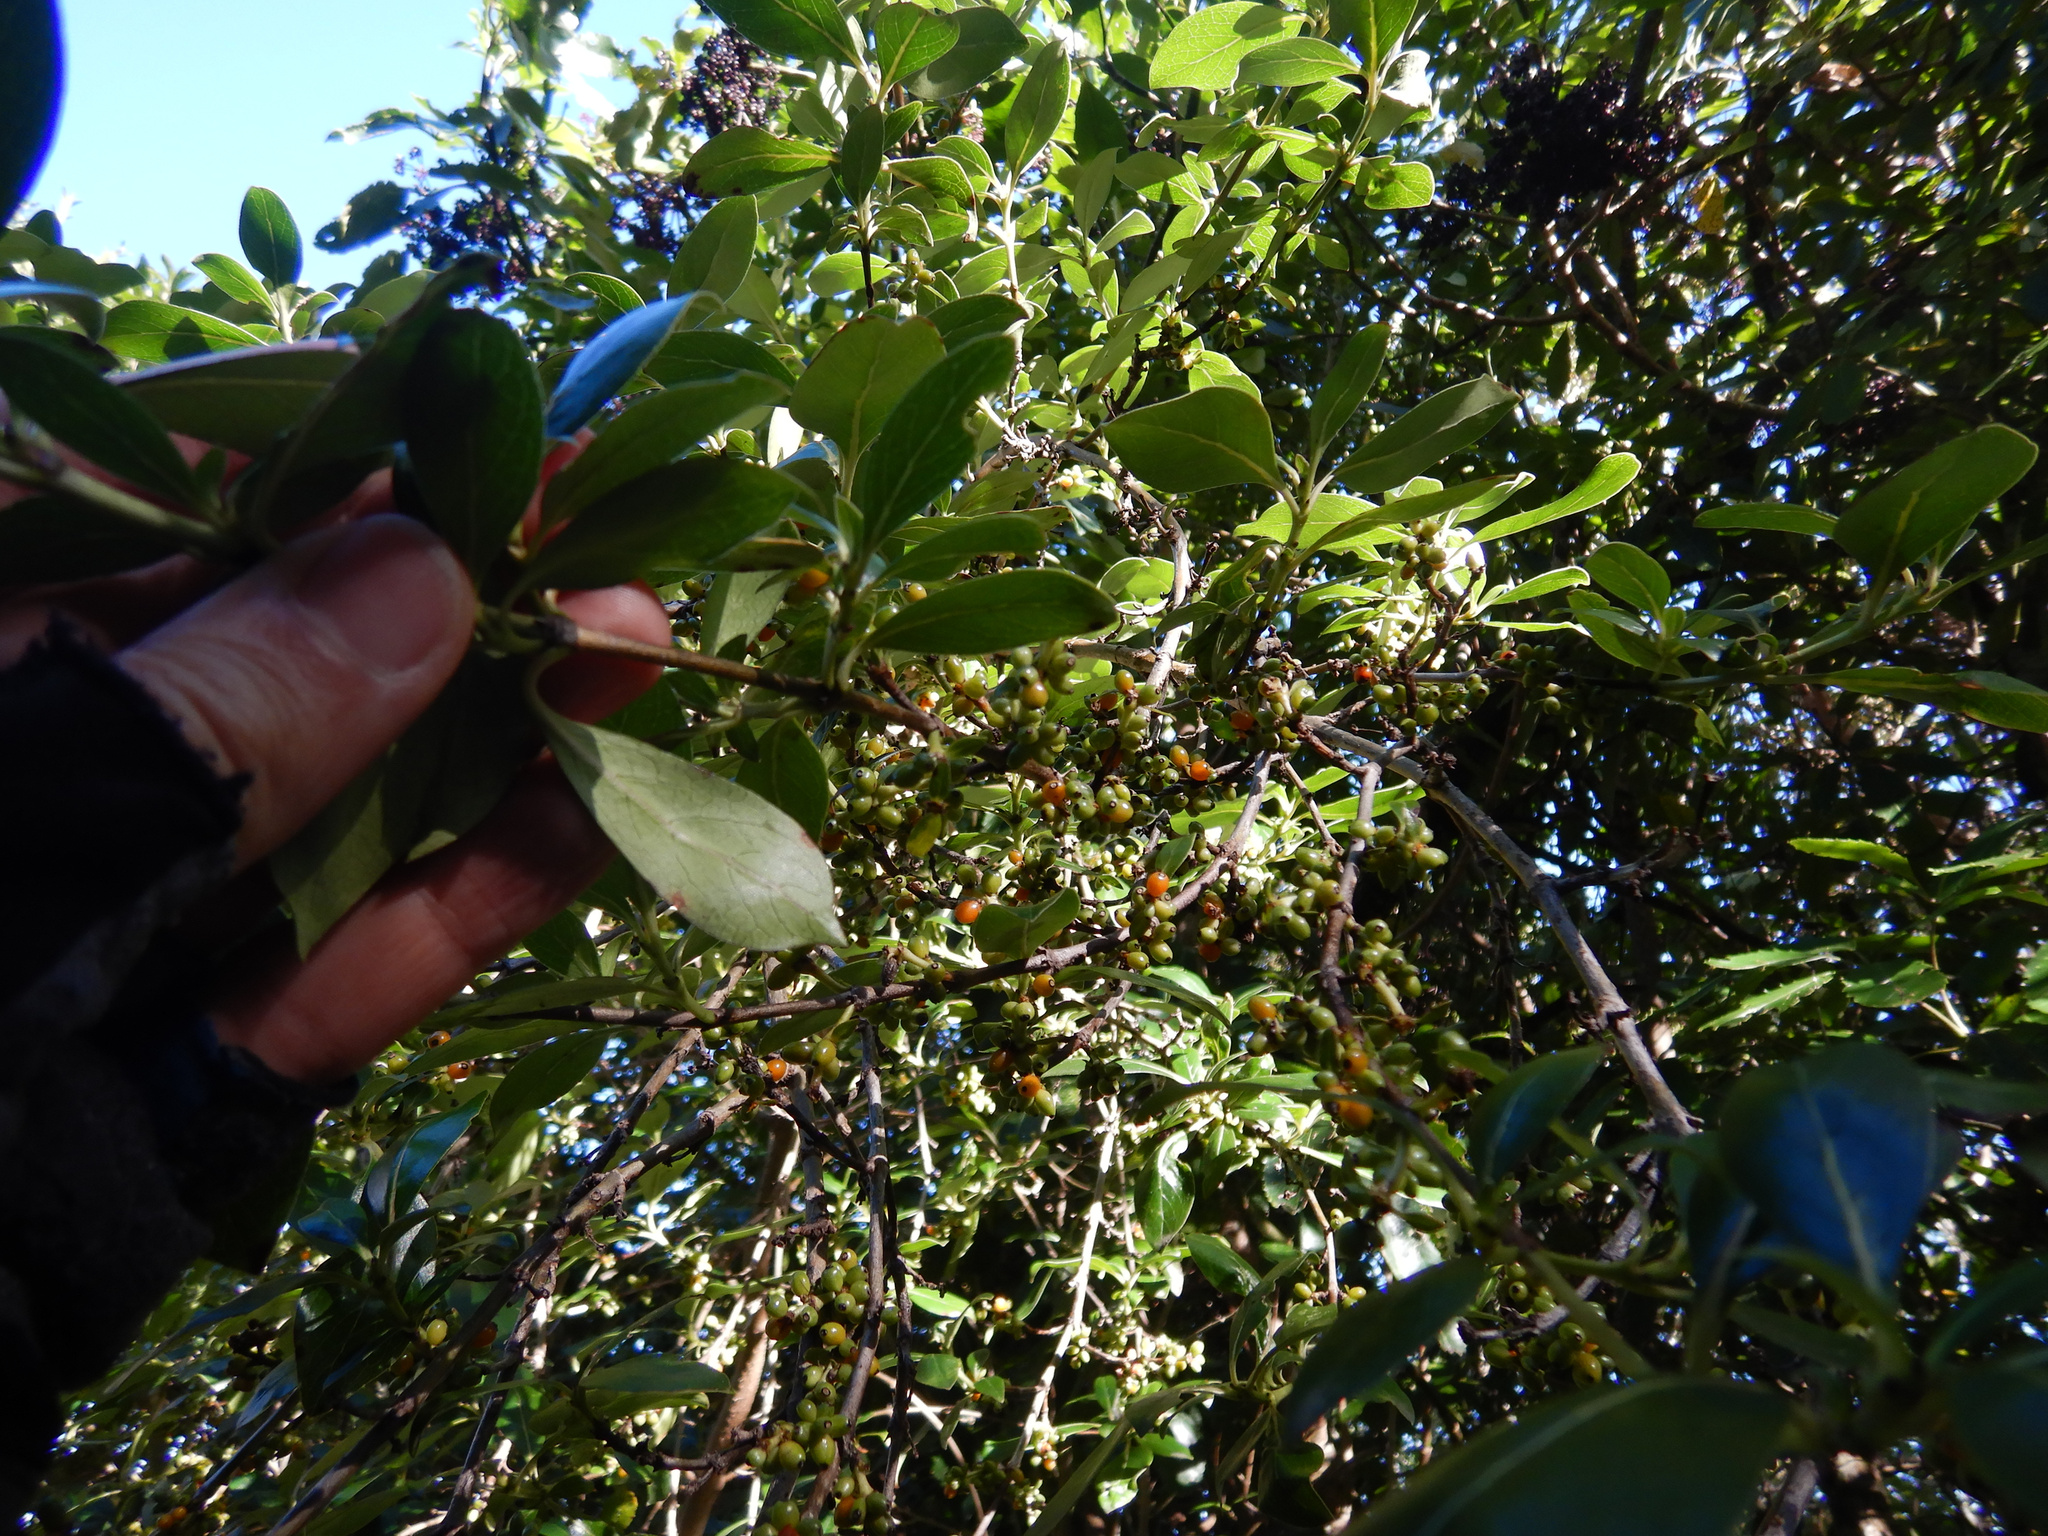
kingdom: Plantae
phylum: Tracheophyta
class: Magnoliopsida
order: Gentianales
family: Rubiaceae
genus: Coprosma
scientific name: Coprosma robusta
